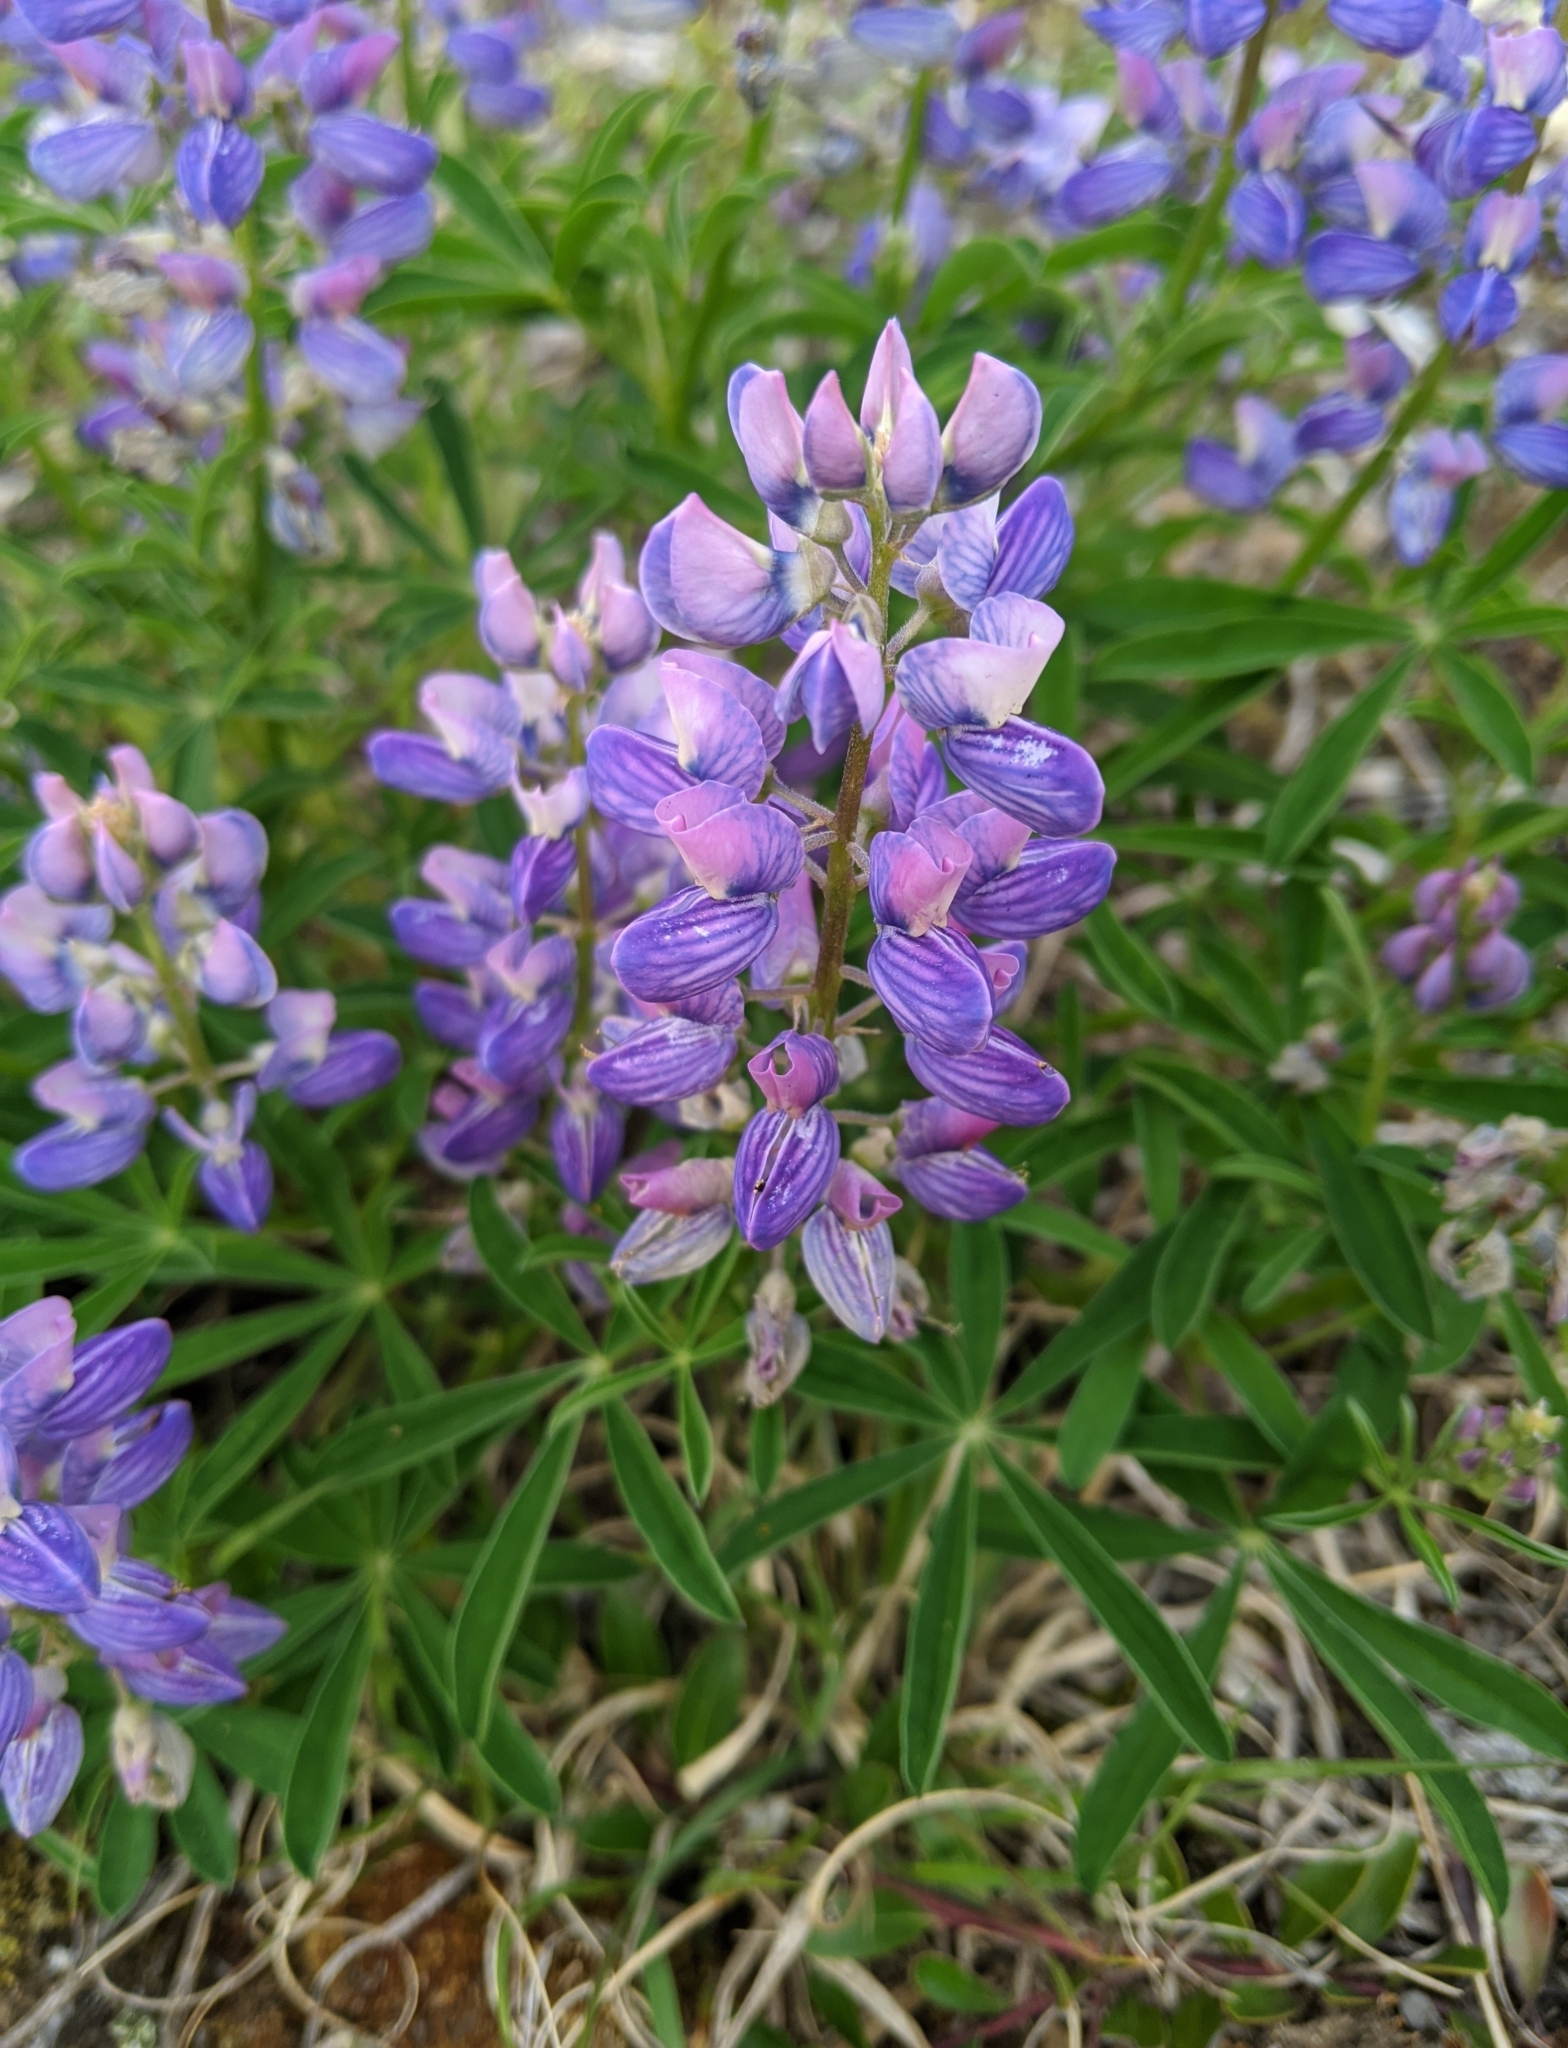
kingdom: Plantae
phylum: Tracheophyta
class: Magnoliopsida
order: Fabales
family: Fabaceae
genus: Lupinus
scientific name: Lupinus arcticus
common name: Arctic lupine
